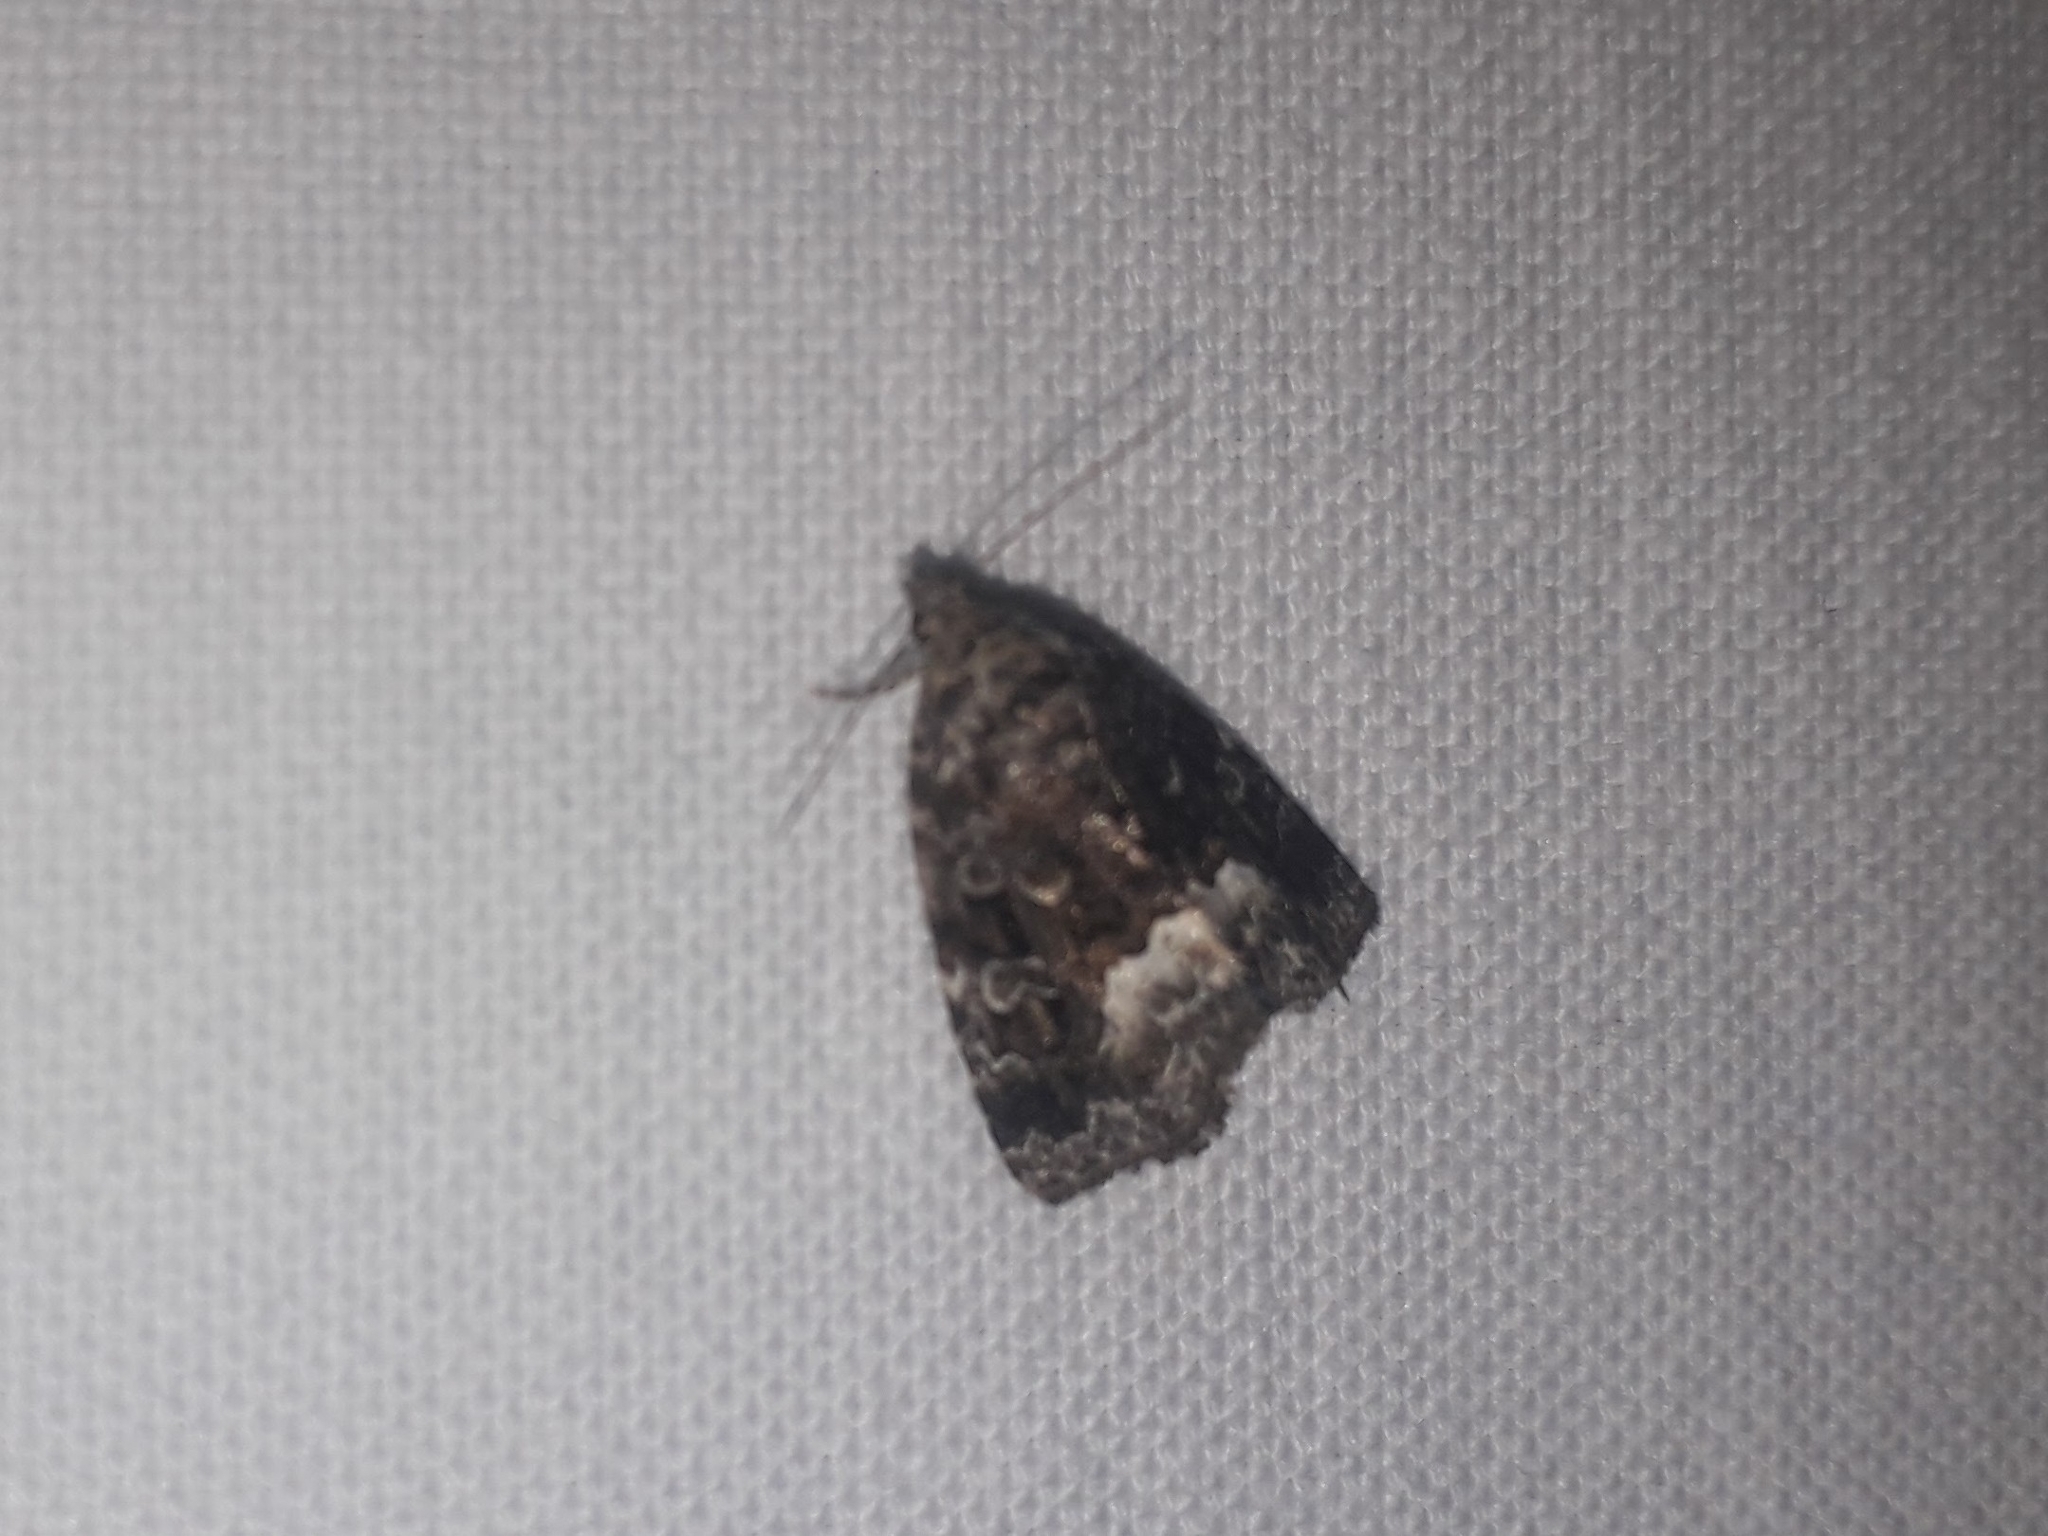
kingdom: Animalia
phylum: Arthropoda
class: Insecta
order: Lepidoptera
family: Noctuidae
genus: Deltote
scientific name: Deltote pygarga
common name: Marbled white spot
